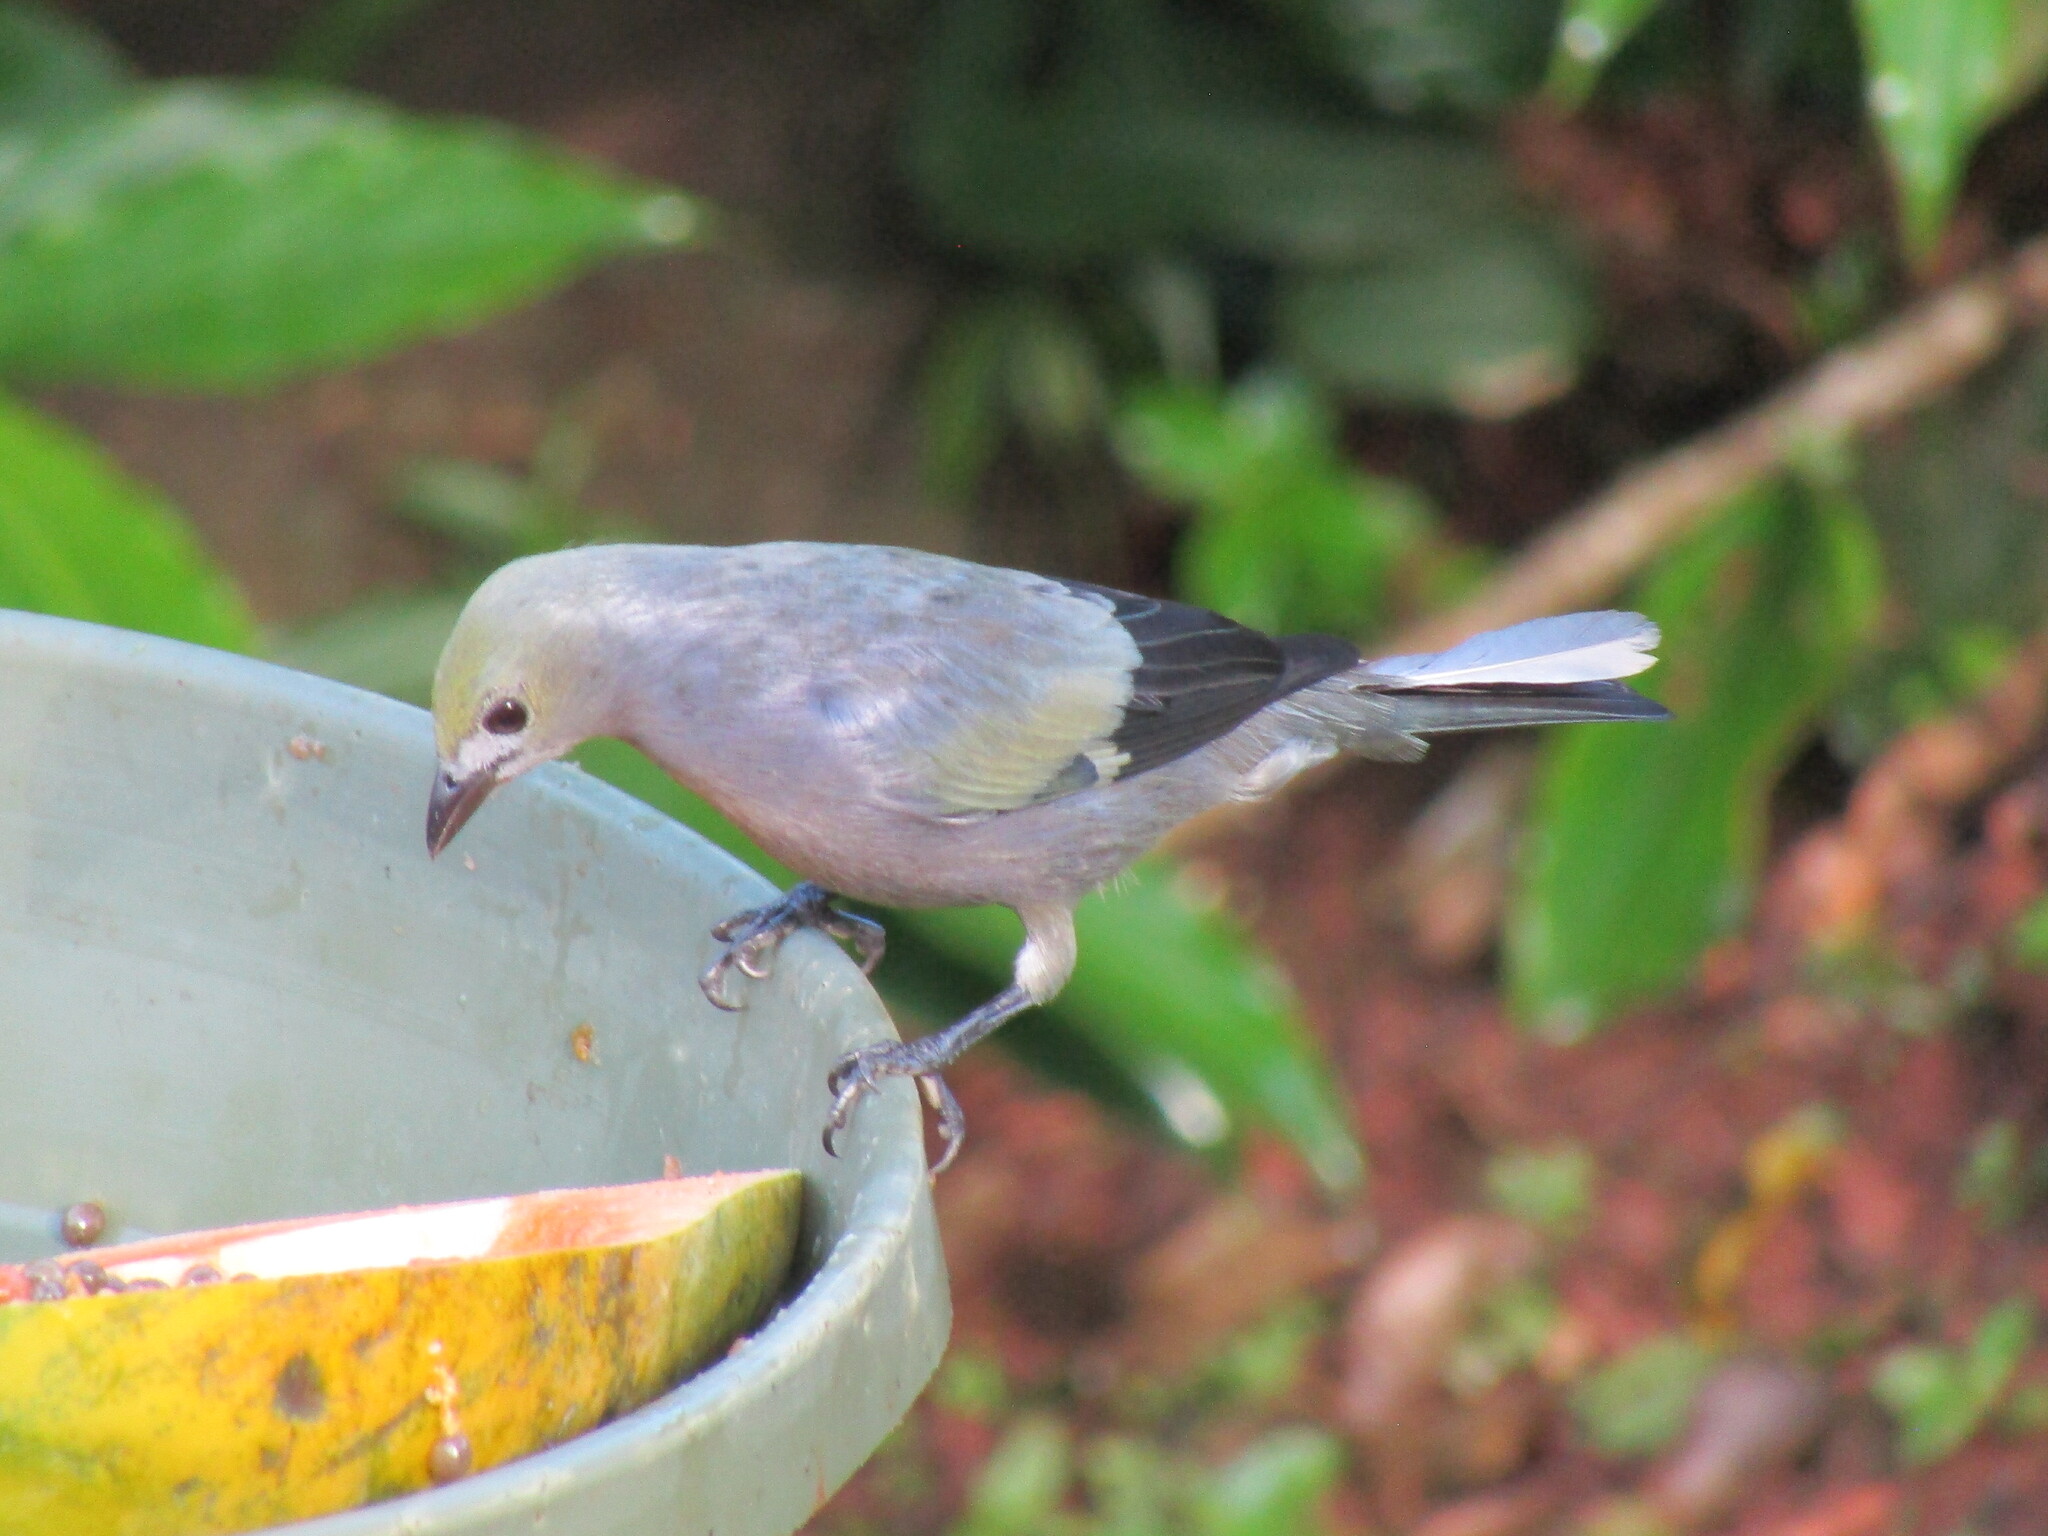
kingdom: Animalia
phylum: Chordata
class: Aves
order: Passeriformes
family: Thraupidae
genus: Thraupis
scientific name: Thraupis palmarum
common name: Palm tanager
